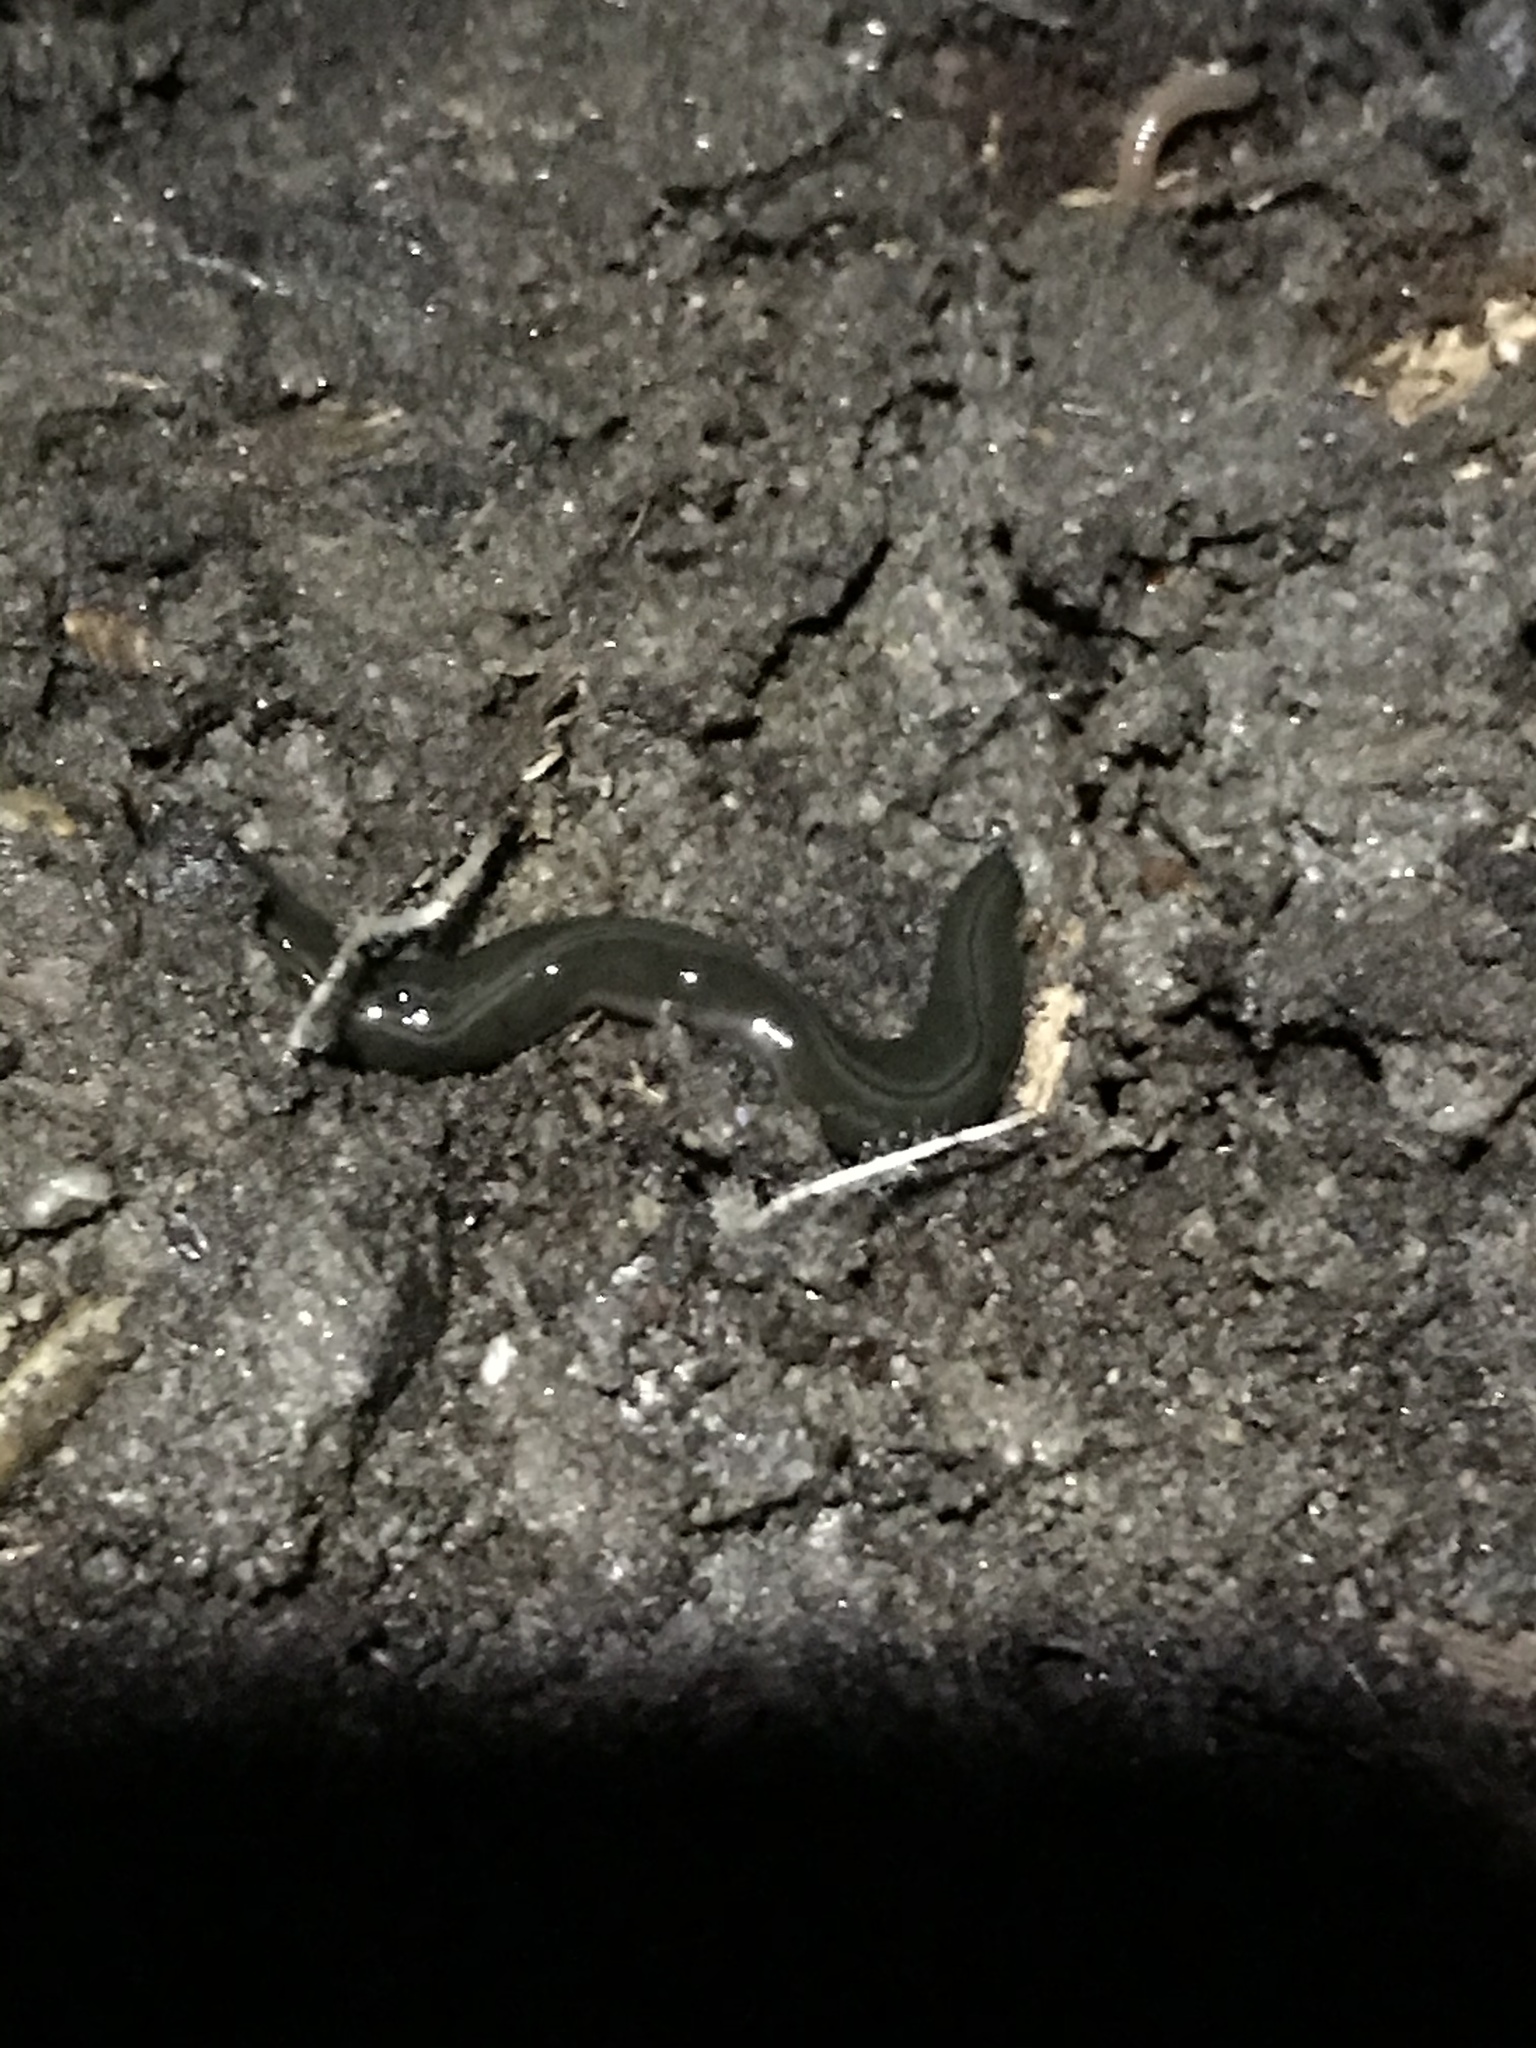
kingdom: Animalia
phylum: Platyhelminthes
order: Tricladida
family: Geoplanidae
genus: Parakontikia
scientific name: Parakontikia ventrolineata
